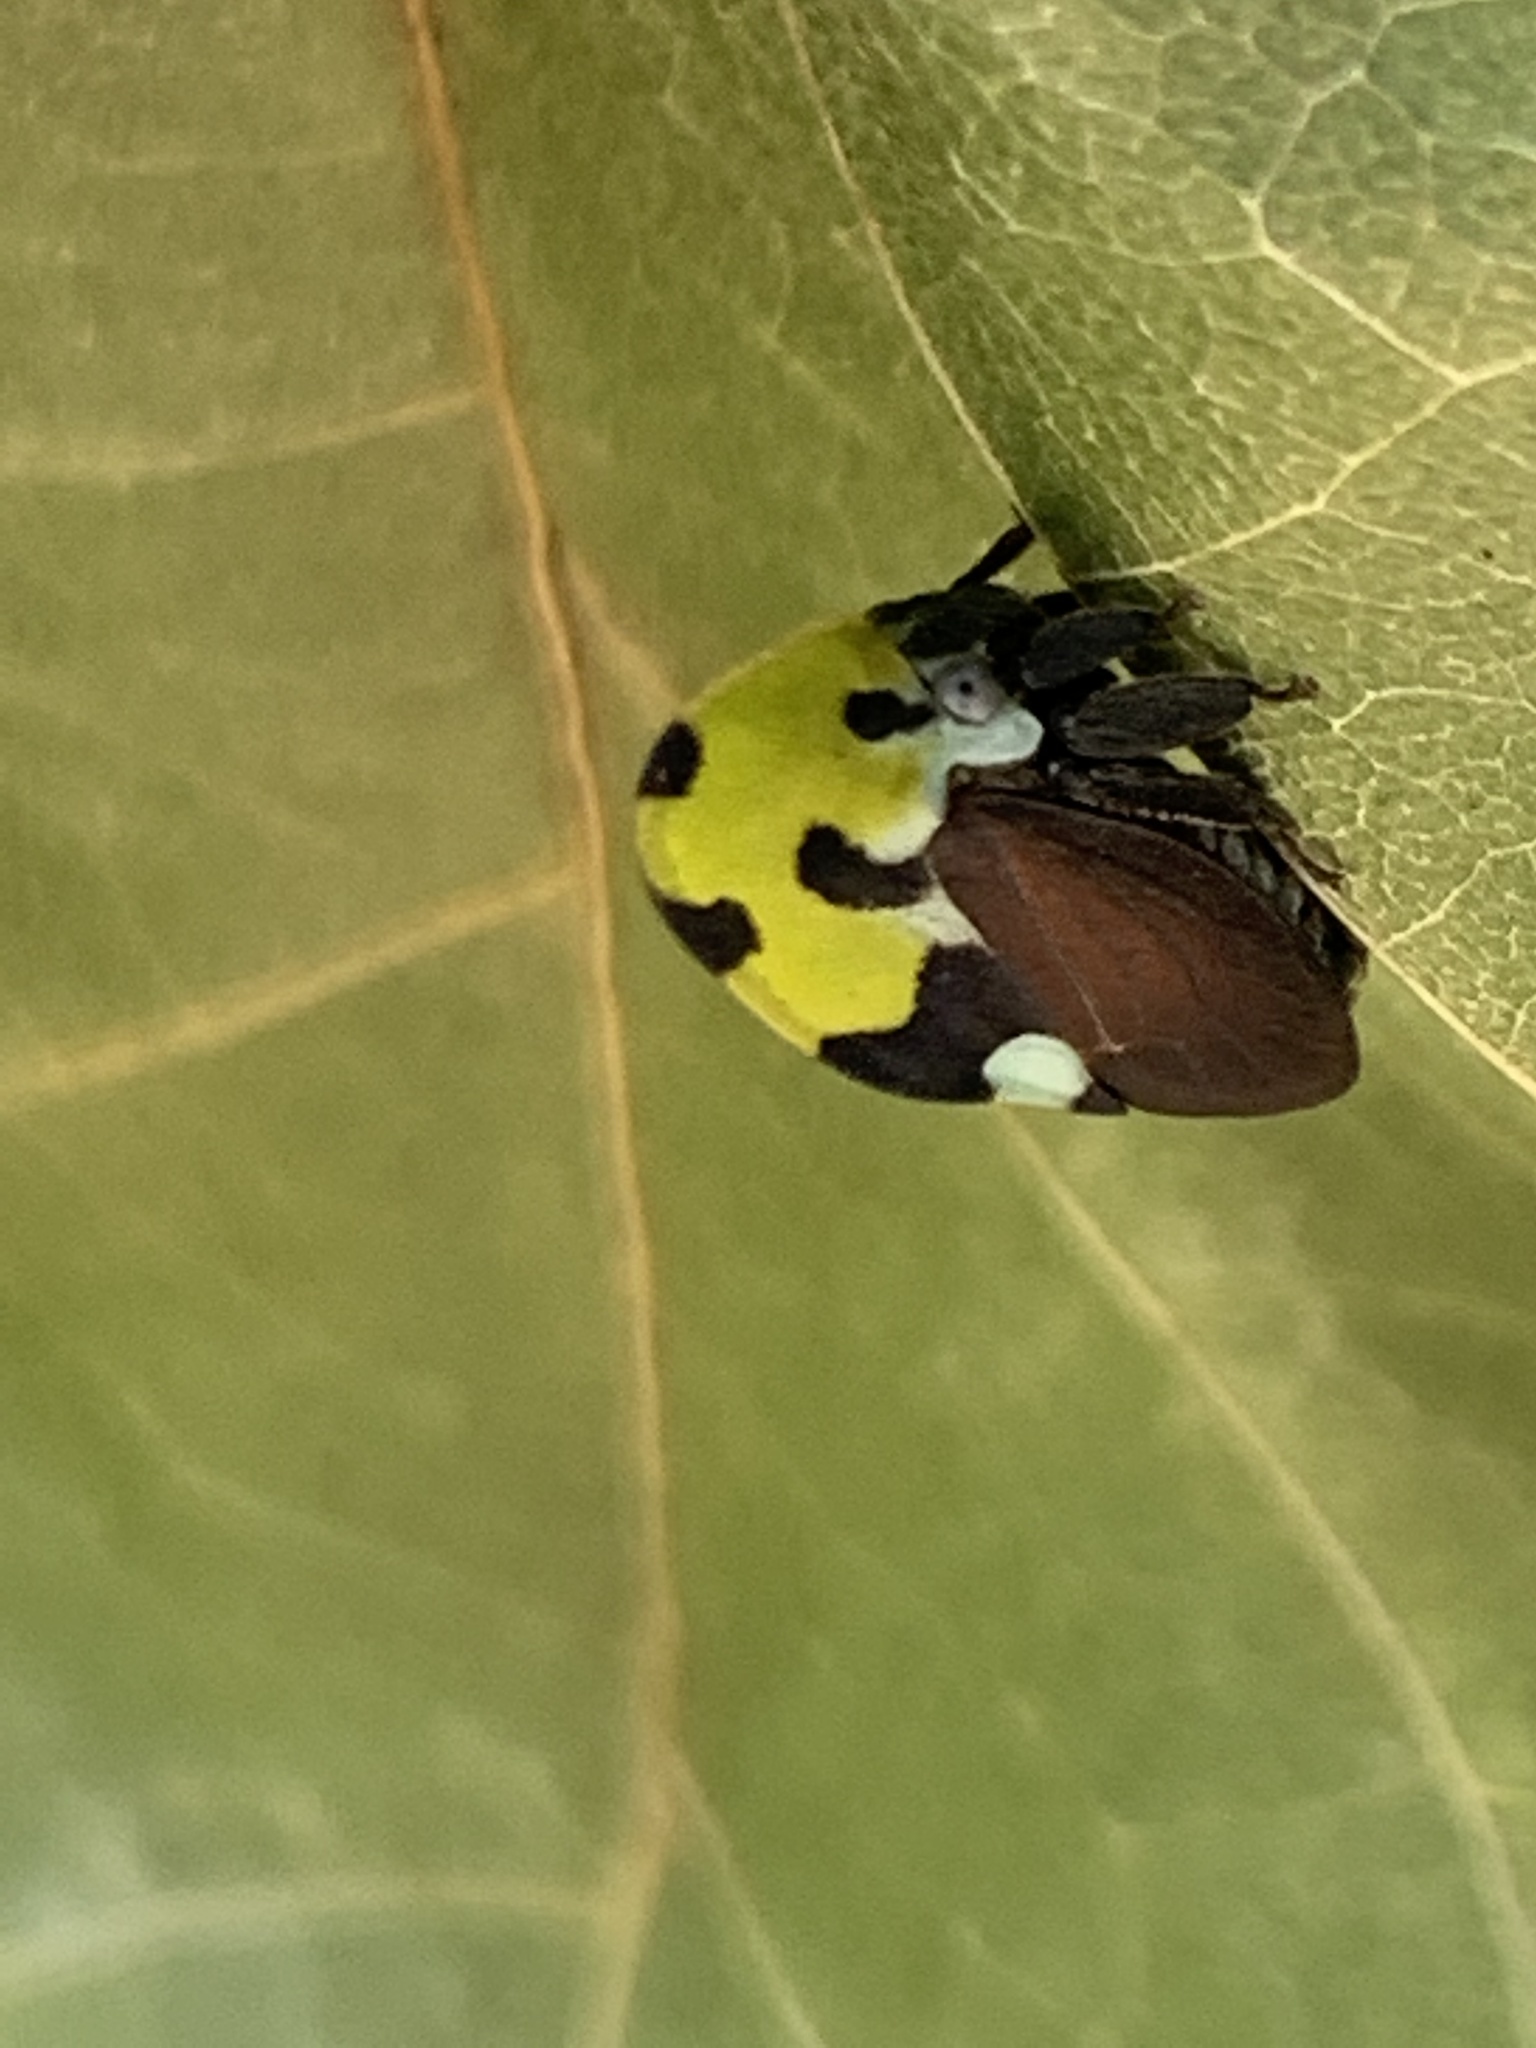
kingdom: Animalia
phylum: Arthropoda
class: Insecta
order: Hemiptera
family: Membracidae
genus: Membracis
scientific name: Membracis mexicana
